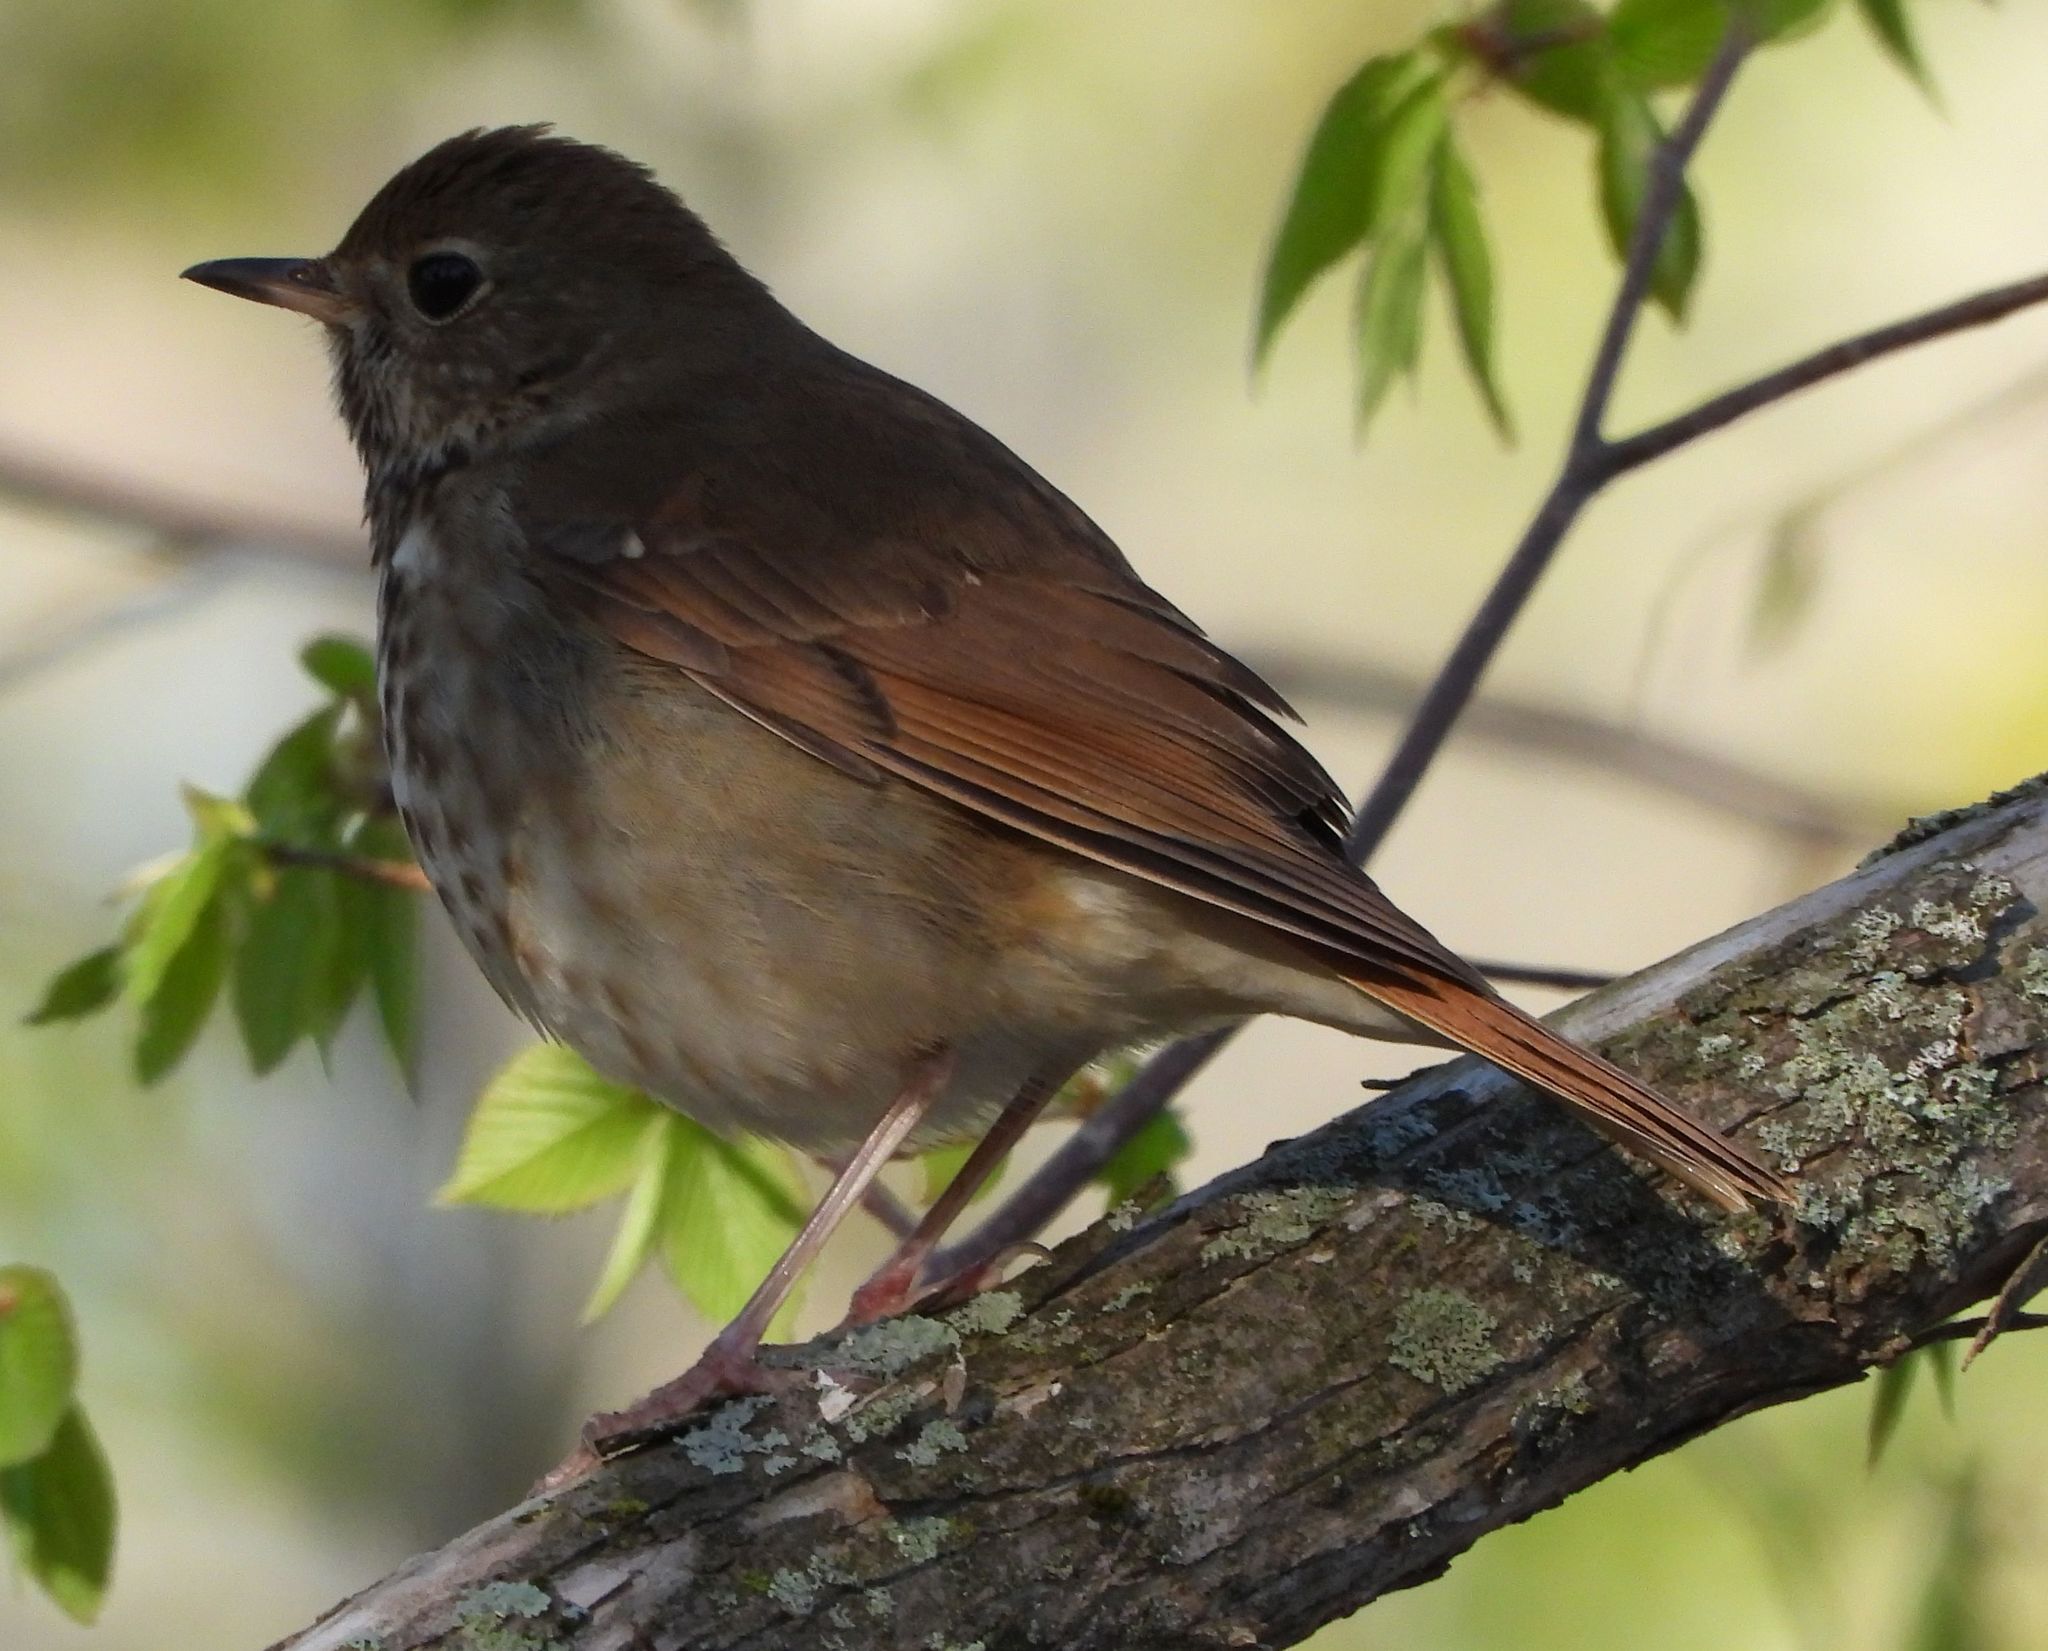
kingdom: Animalia
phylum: Chordata
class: Aves
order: Passeriformes
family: Turdidae
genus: Catharus
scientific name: Catharus guttatus
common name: Hermit thrush
